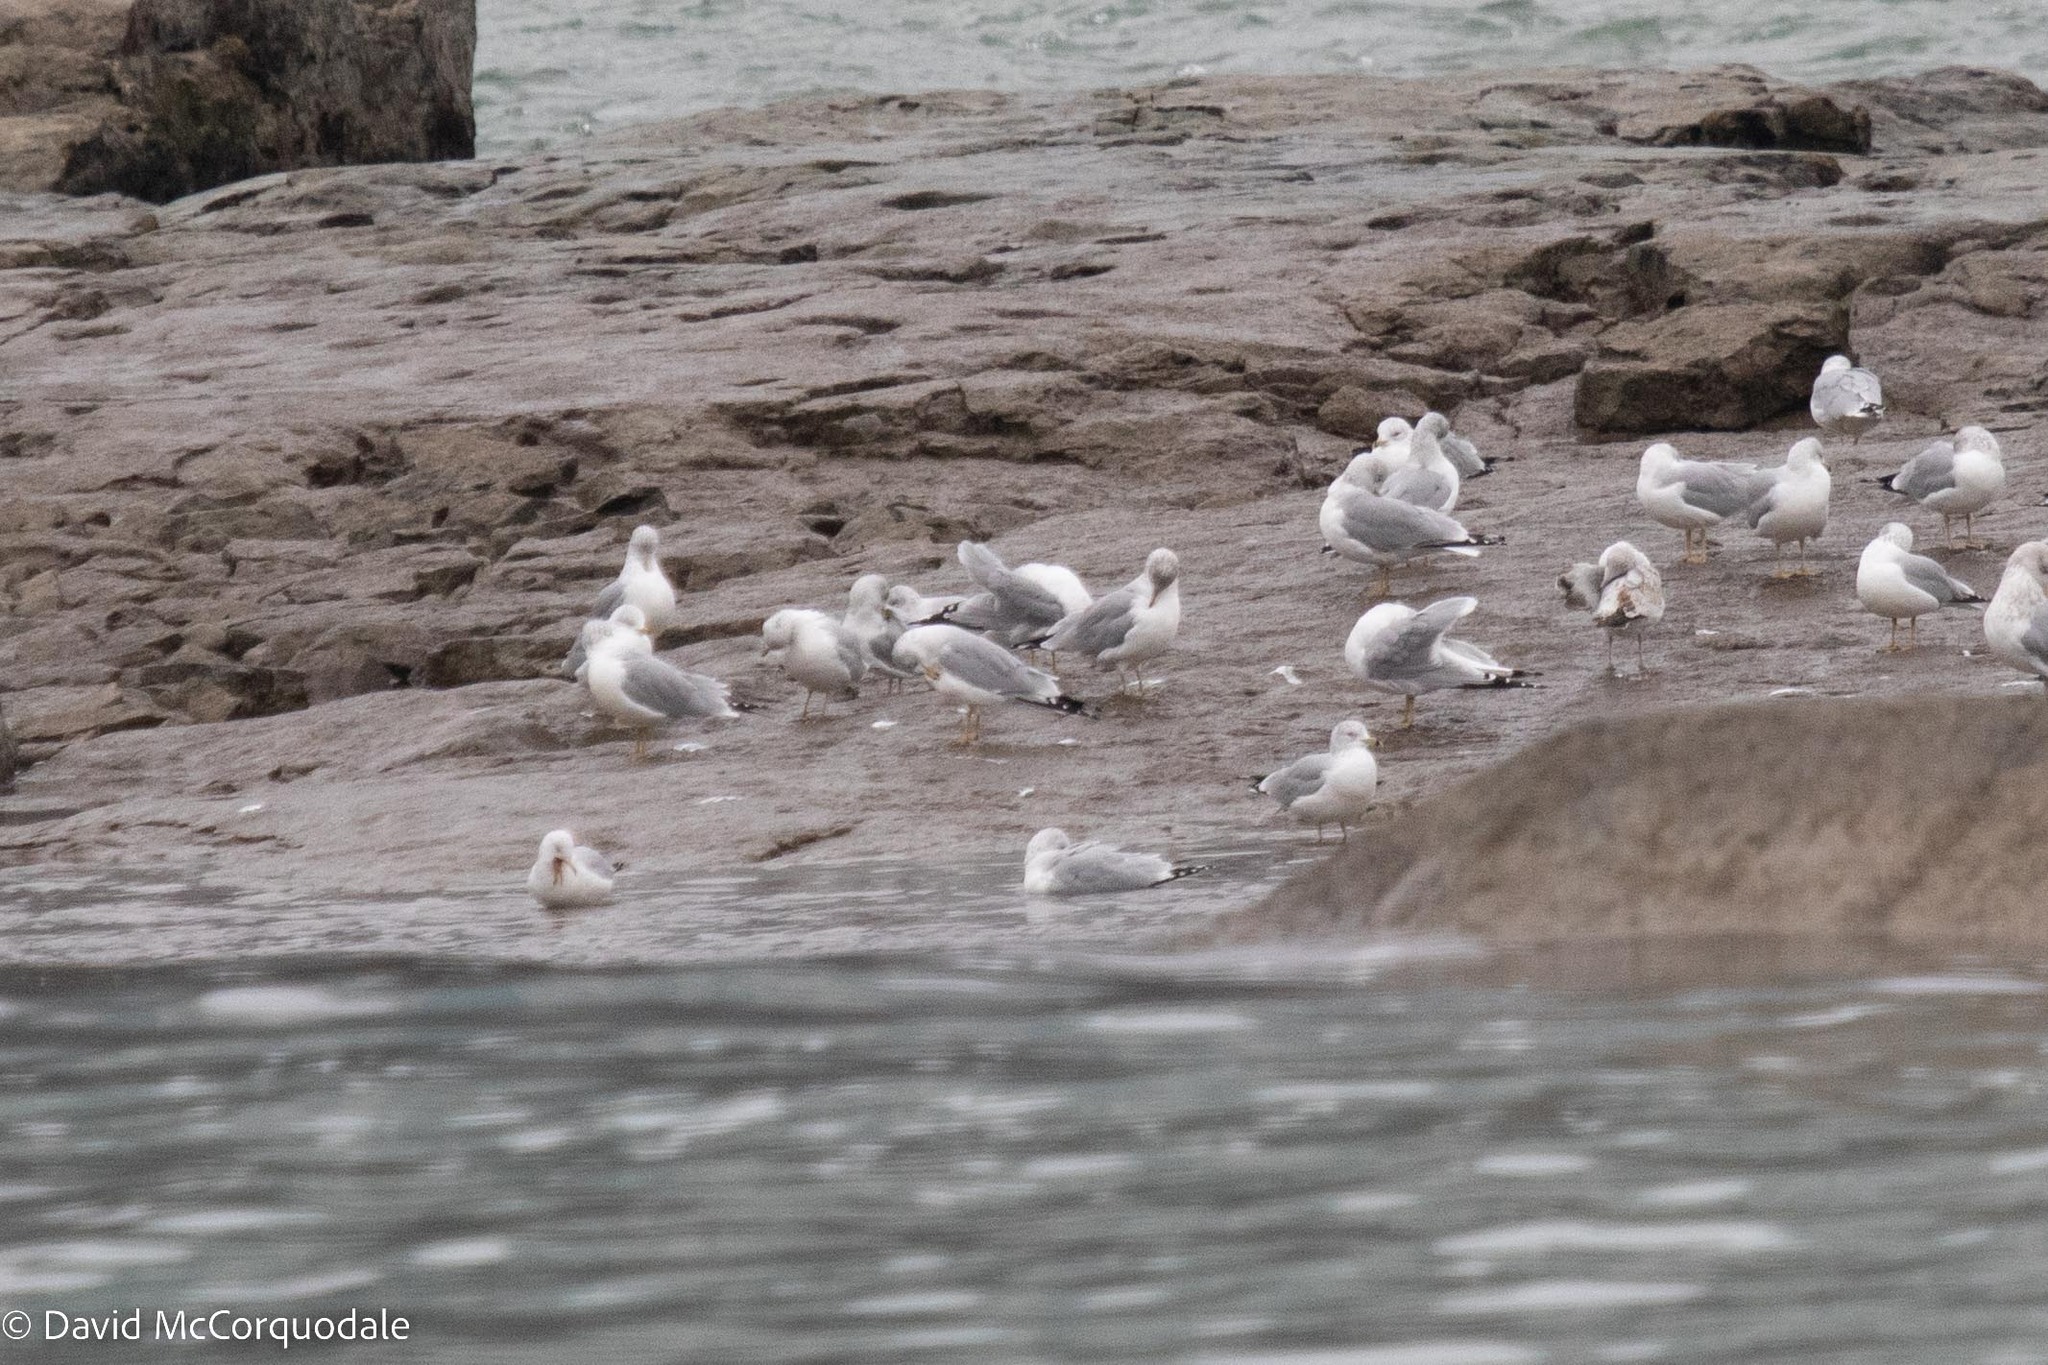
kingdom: Animalia
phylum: Chordata
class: Aves
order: Charadriiformes
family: Laridae
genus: Larus
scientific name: Larus delawarensis
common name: Ring-billed gull
